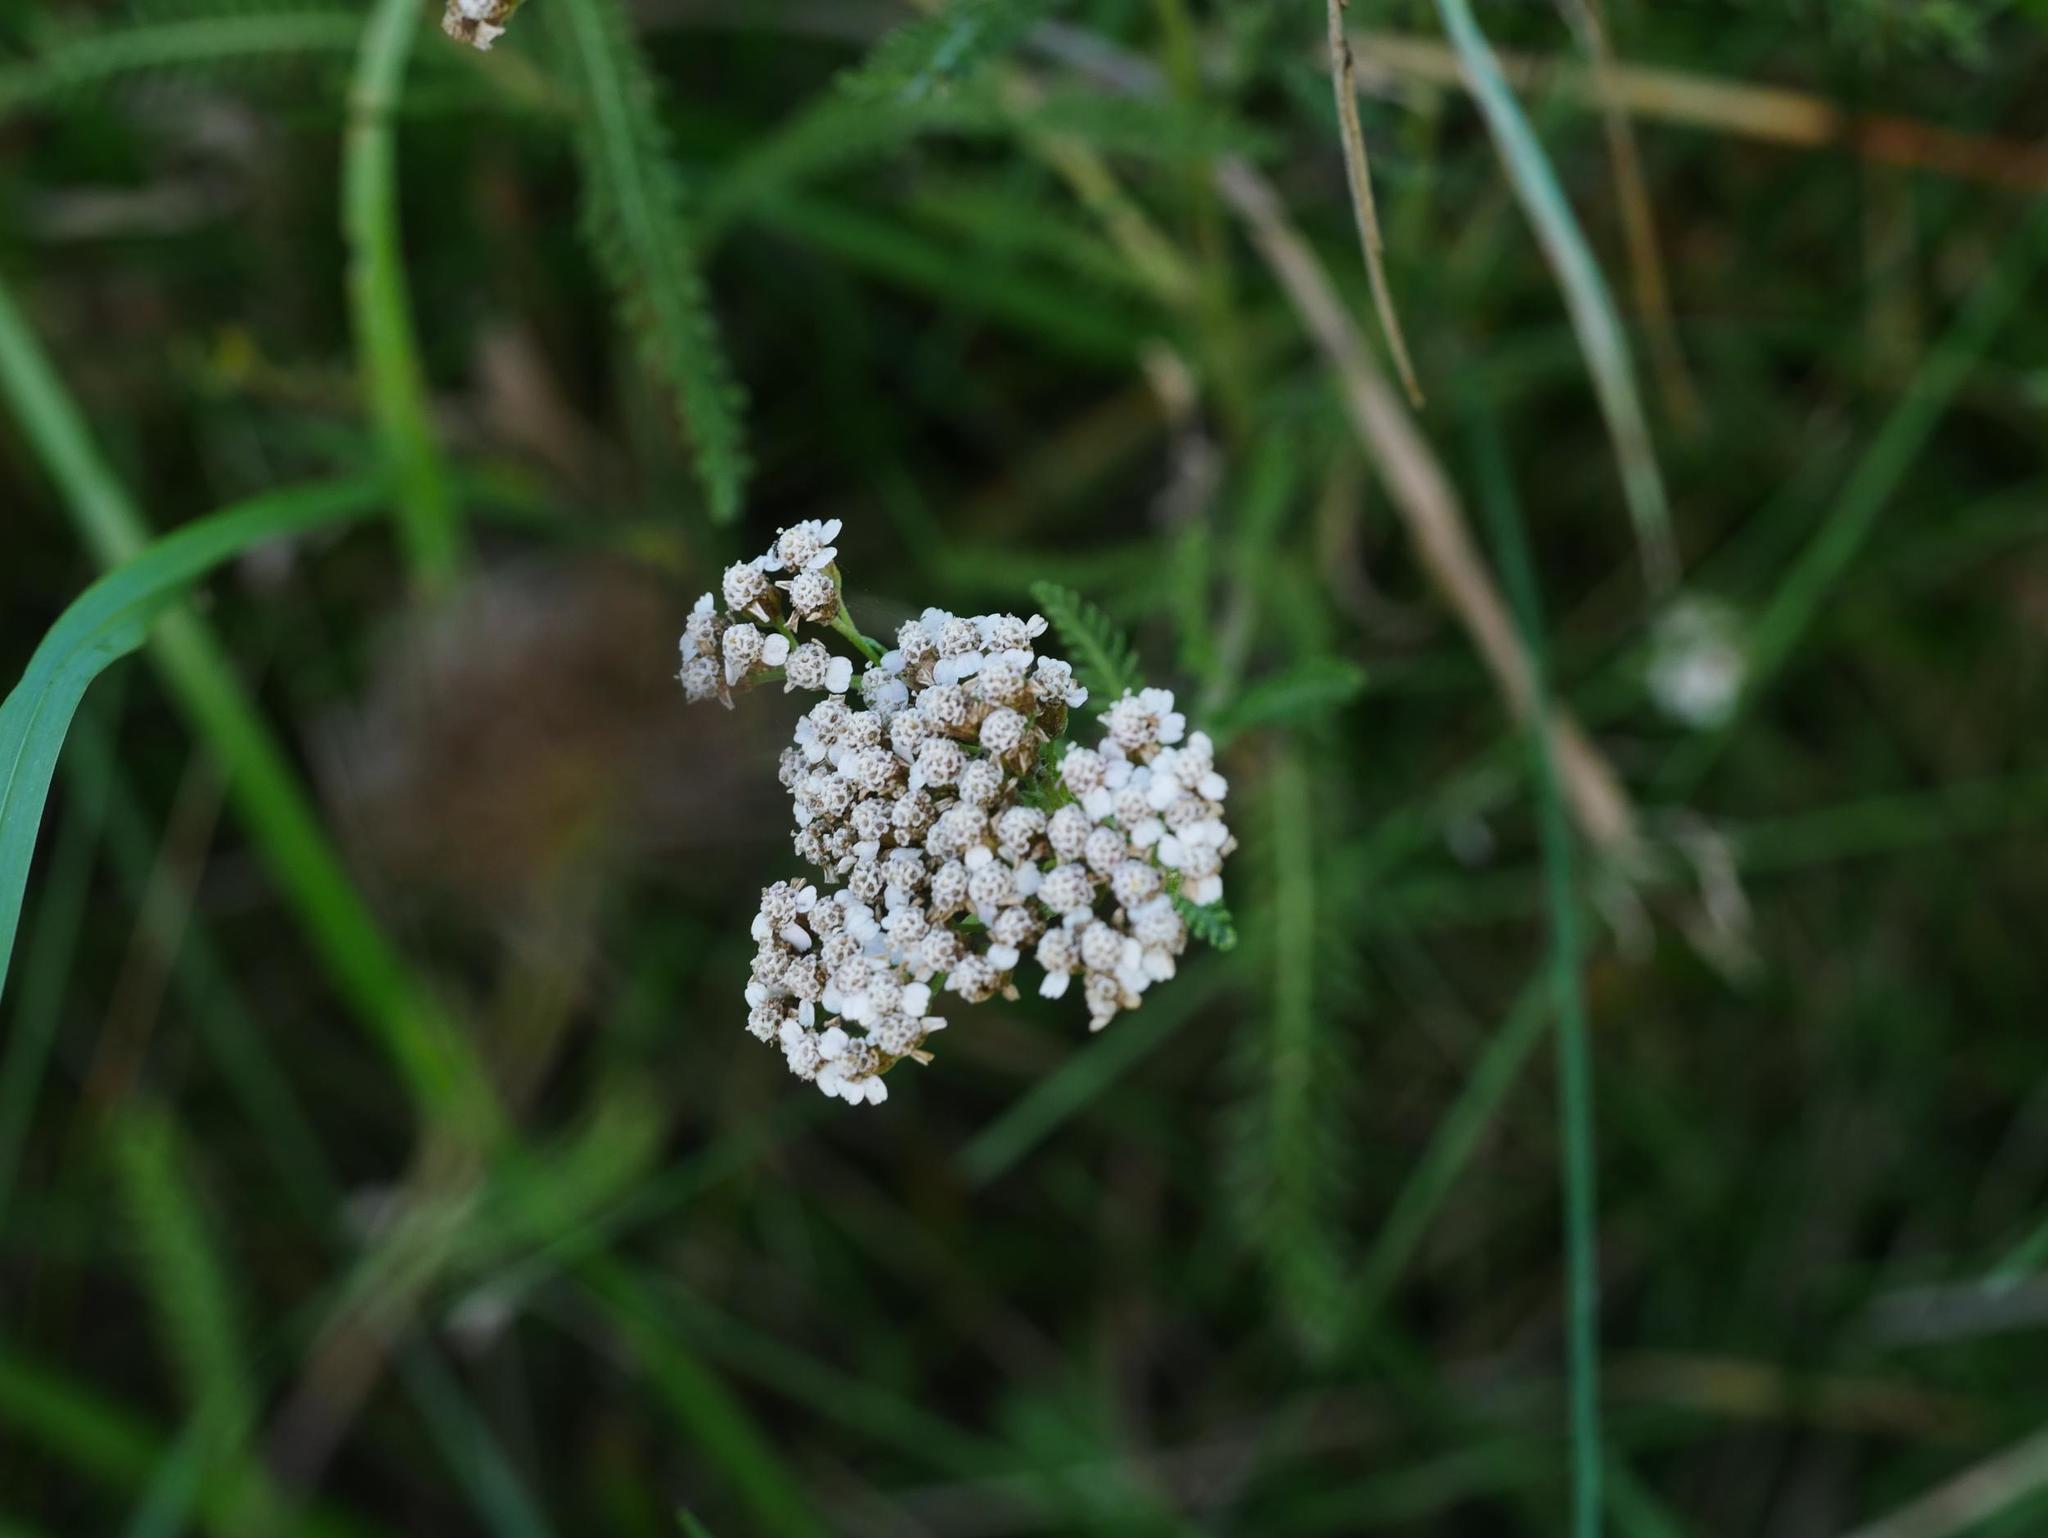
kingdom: Plantae
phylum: Tracheophyta
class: Magnoliopsida
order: Asterales
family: Asteraceae
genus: Achillea
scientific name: Achillea millefolium
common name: Yarrow
